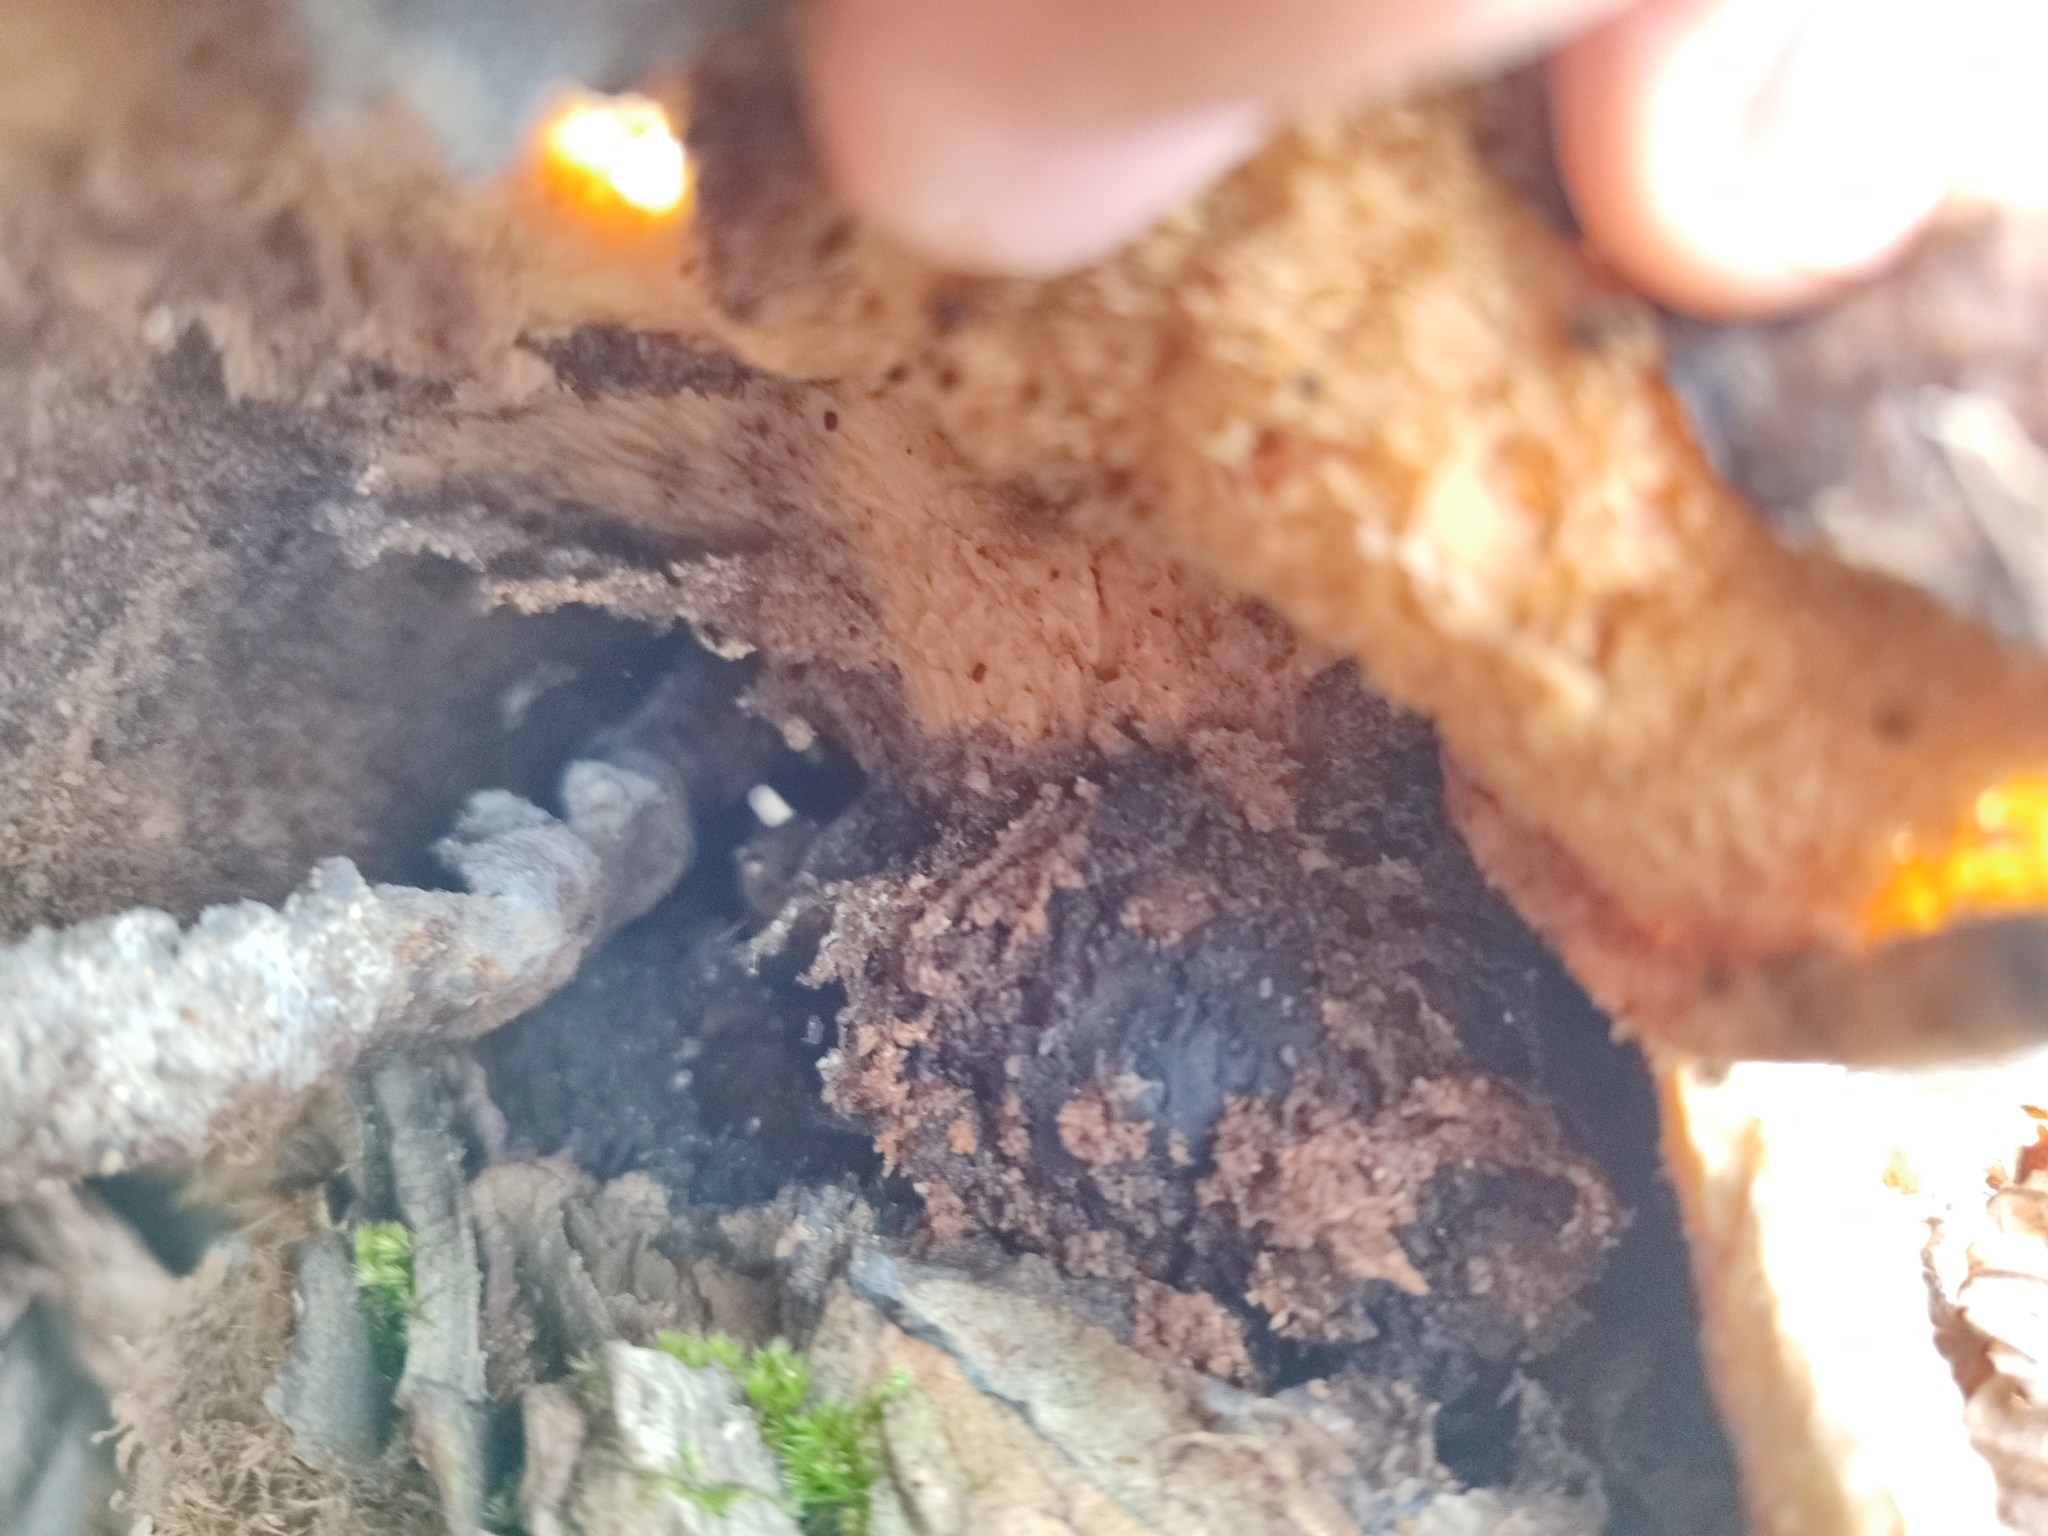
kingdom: Fungi
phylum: Basidiomycota
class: Agaricomycetes
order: Polyporales
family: Polyporaceae
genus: Picipes
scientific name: Picipes badius
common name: Bay polypore
